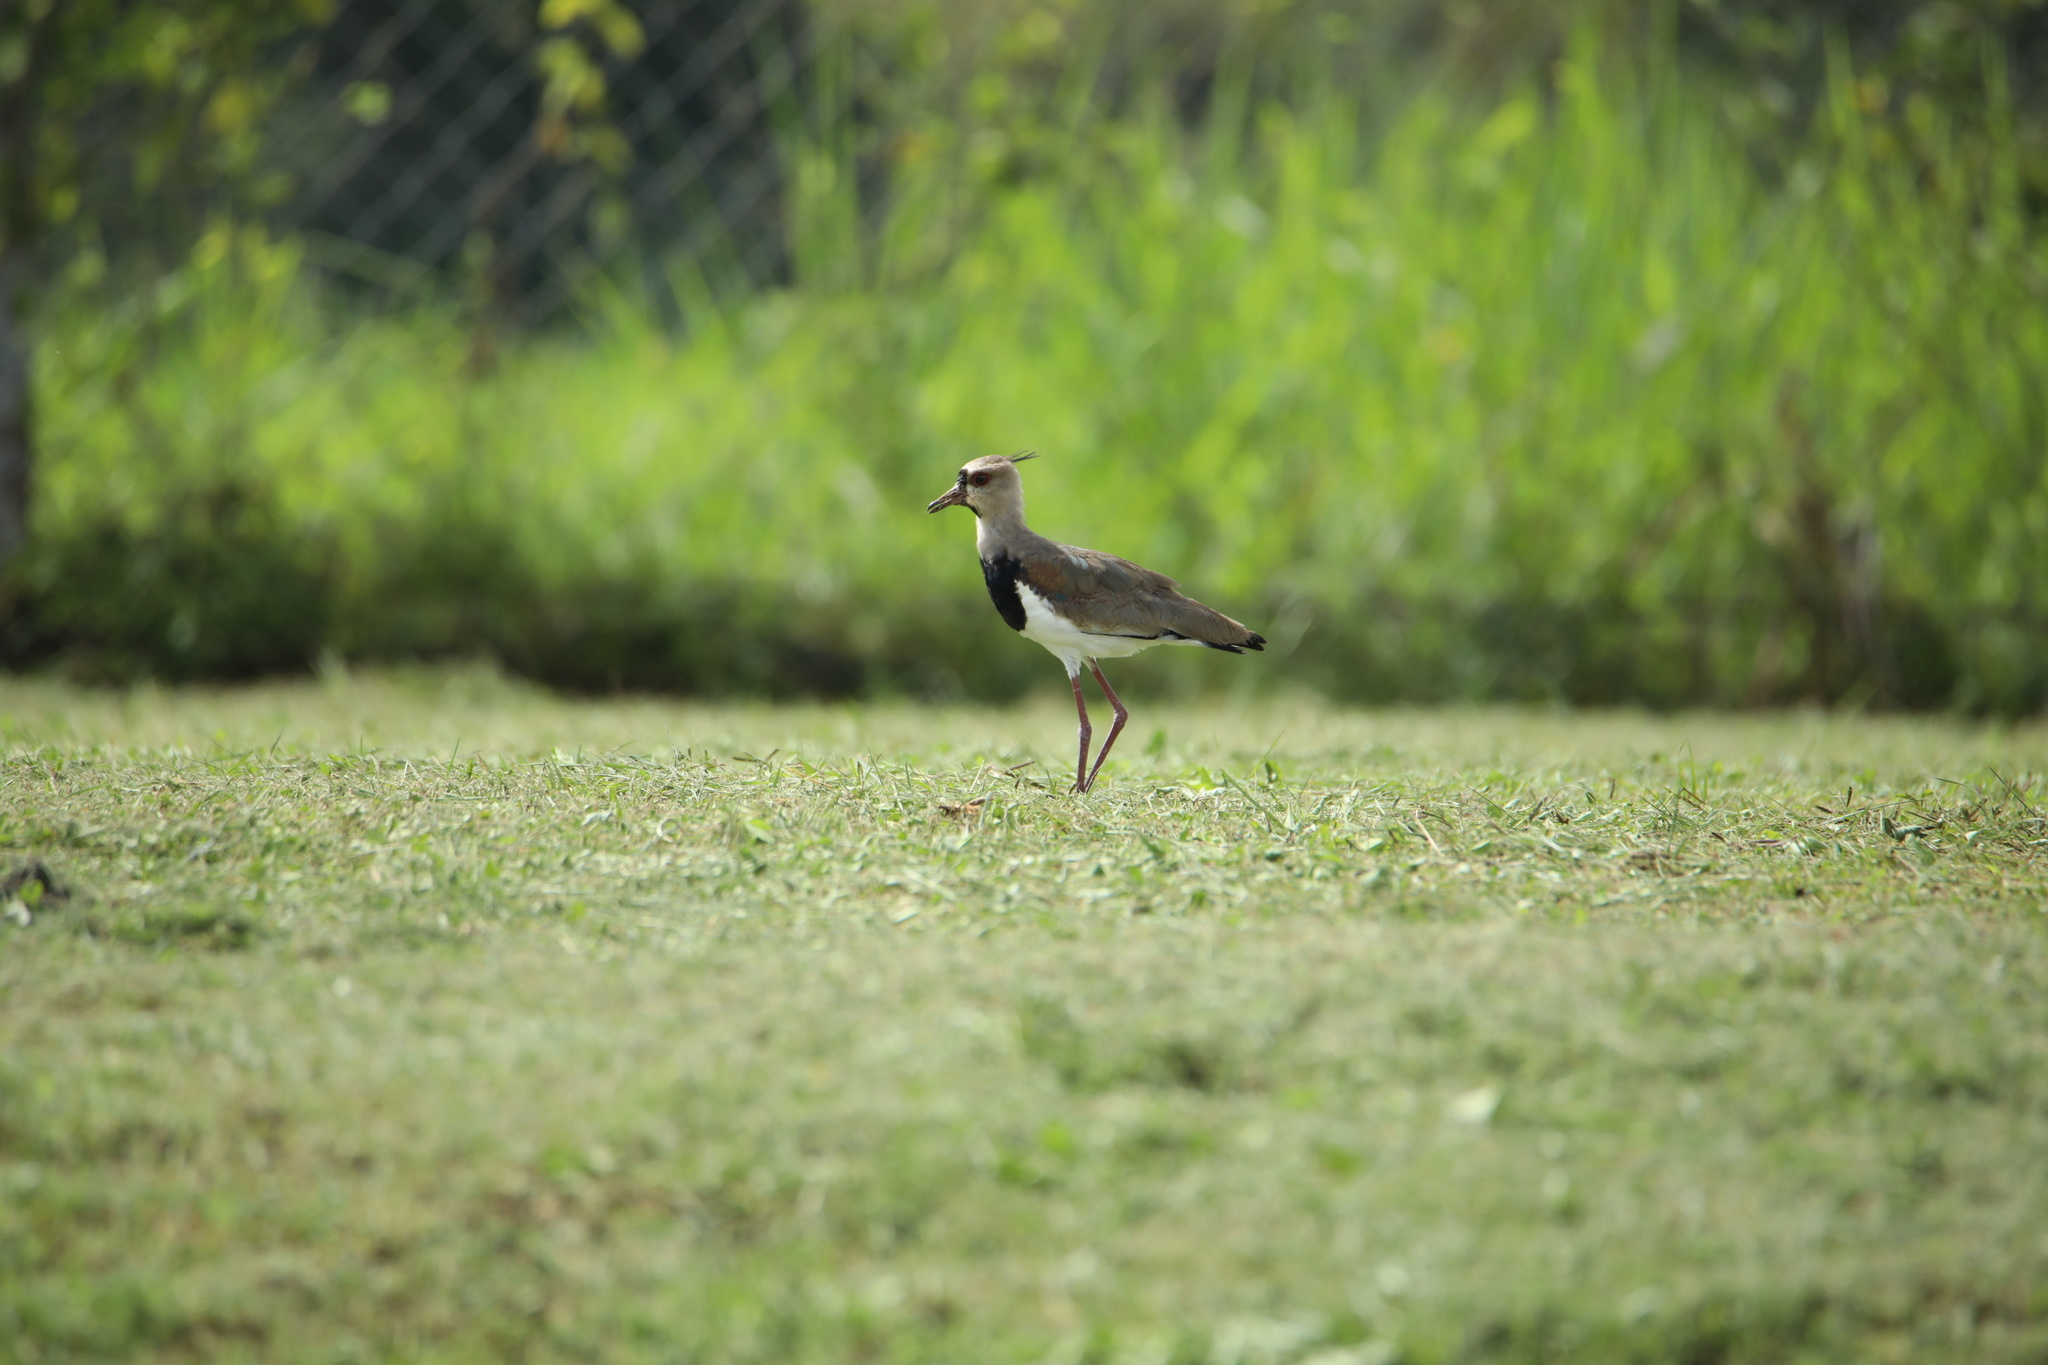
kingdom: Animalia
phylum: Chordata
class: Aves
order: Charadriiformes
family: Charadriidae
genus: Vanellus
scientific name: Vanellus chilensis
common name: Southern lapwing
